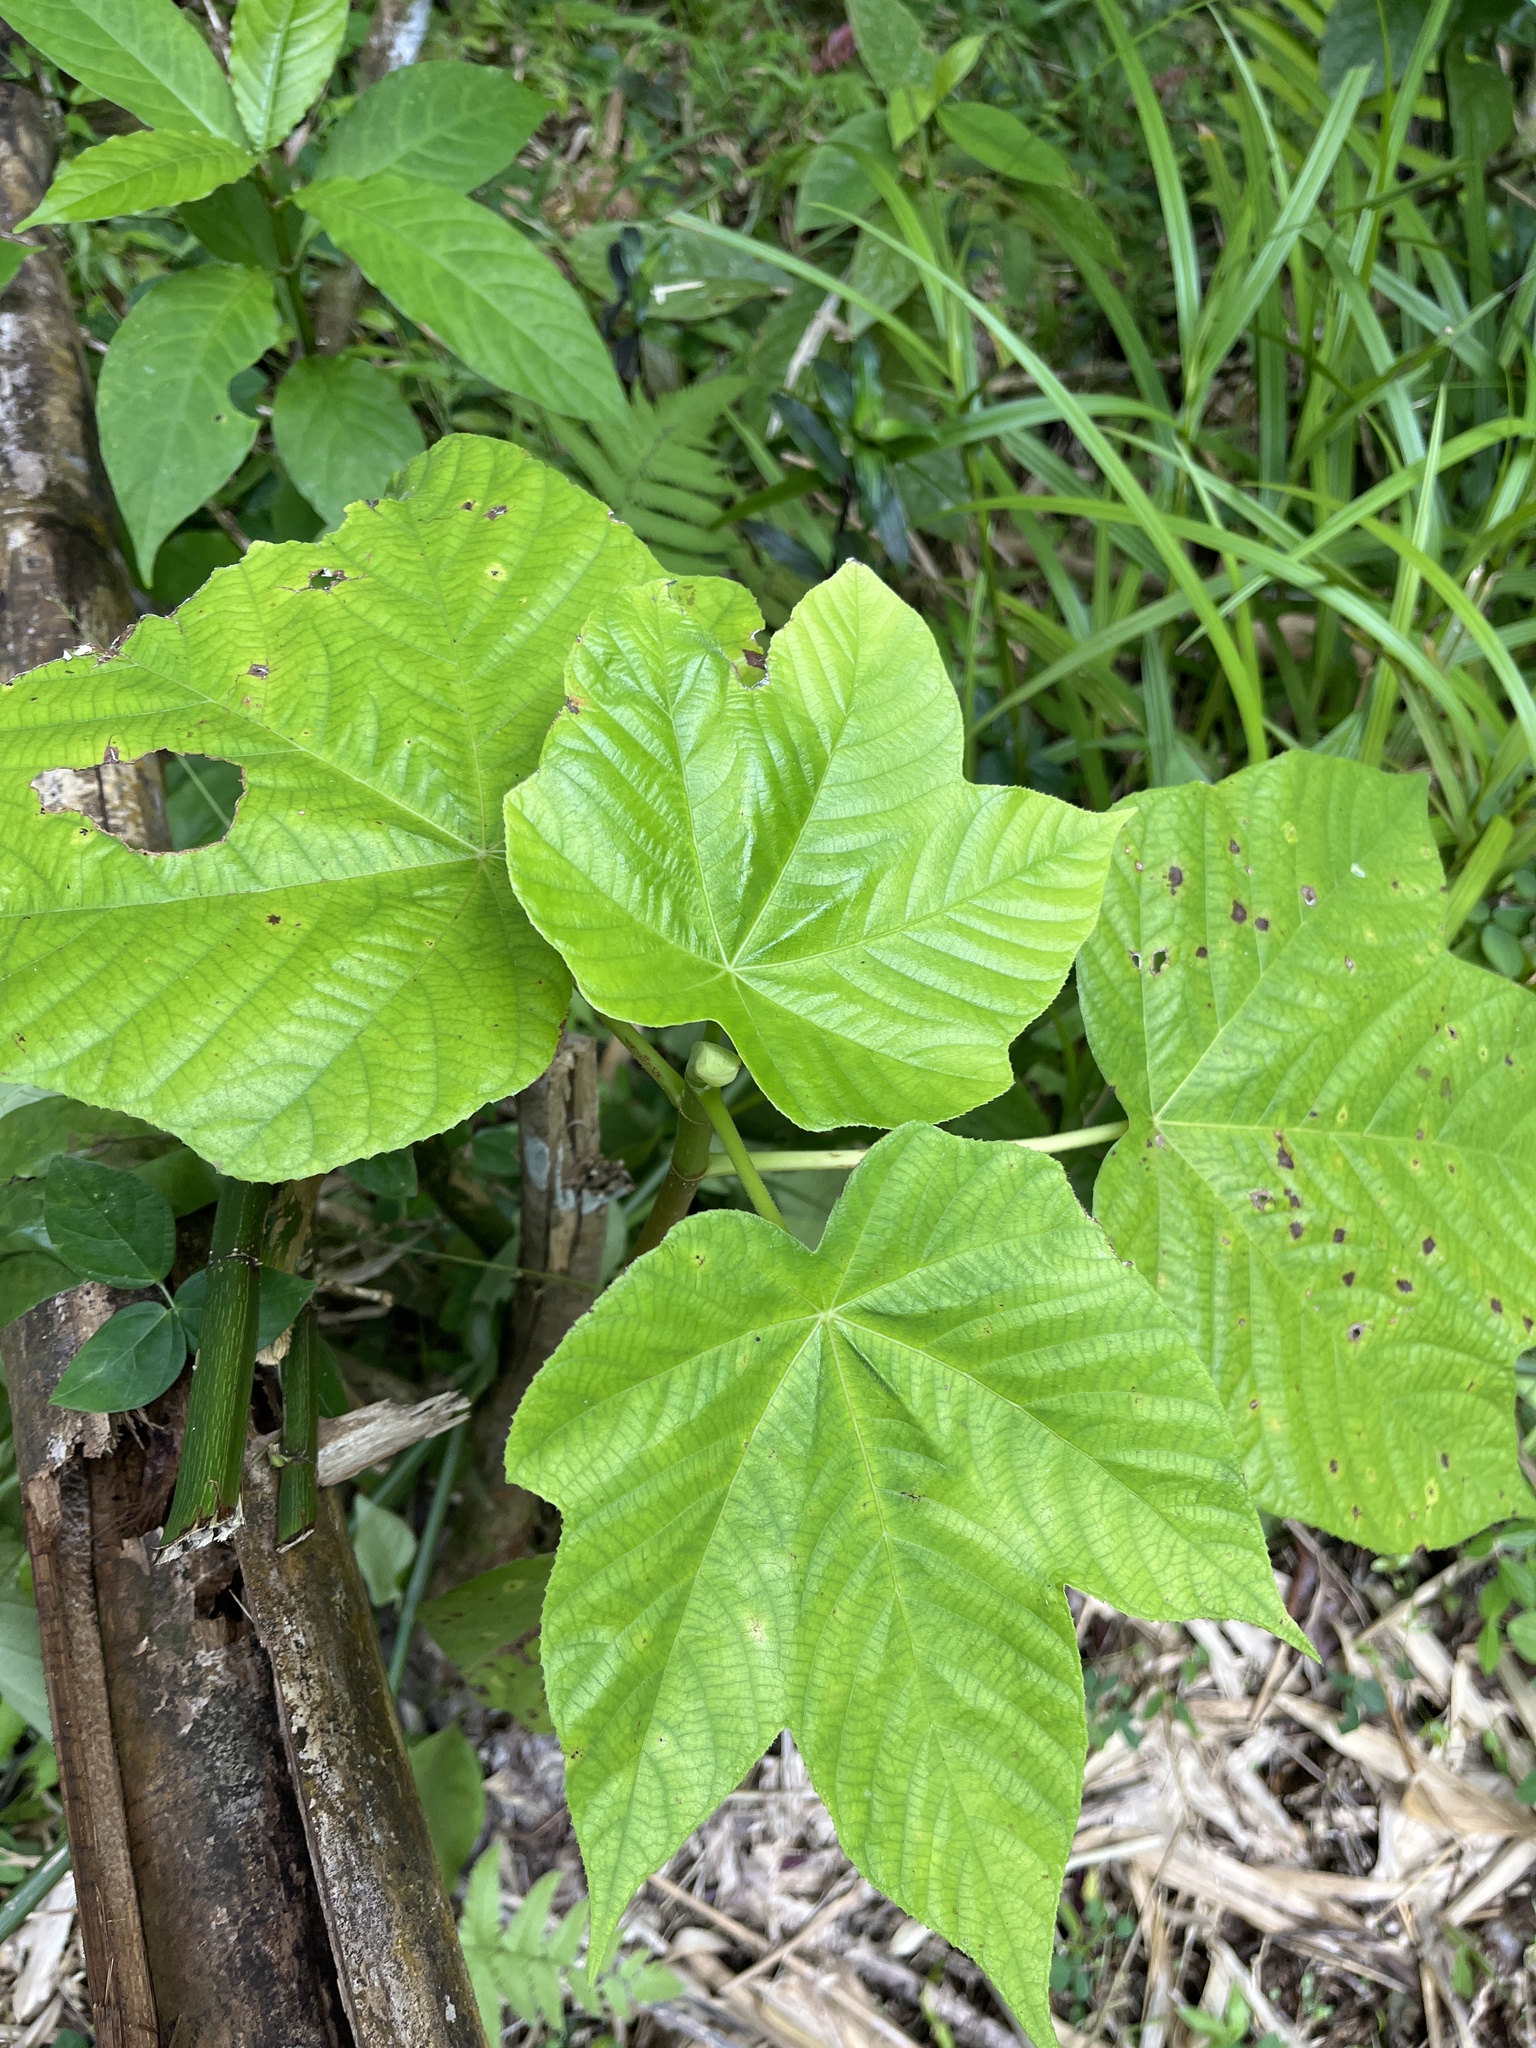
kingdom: Plantae
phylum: Tracheophyta
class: Magnoliopsida
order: Rosales
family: Urticaceae
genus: Cecropia
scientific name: Cecropia schreberiana
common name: Trumpet tree
